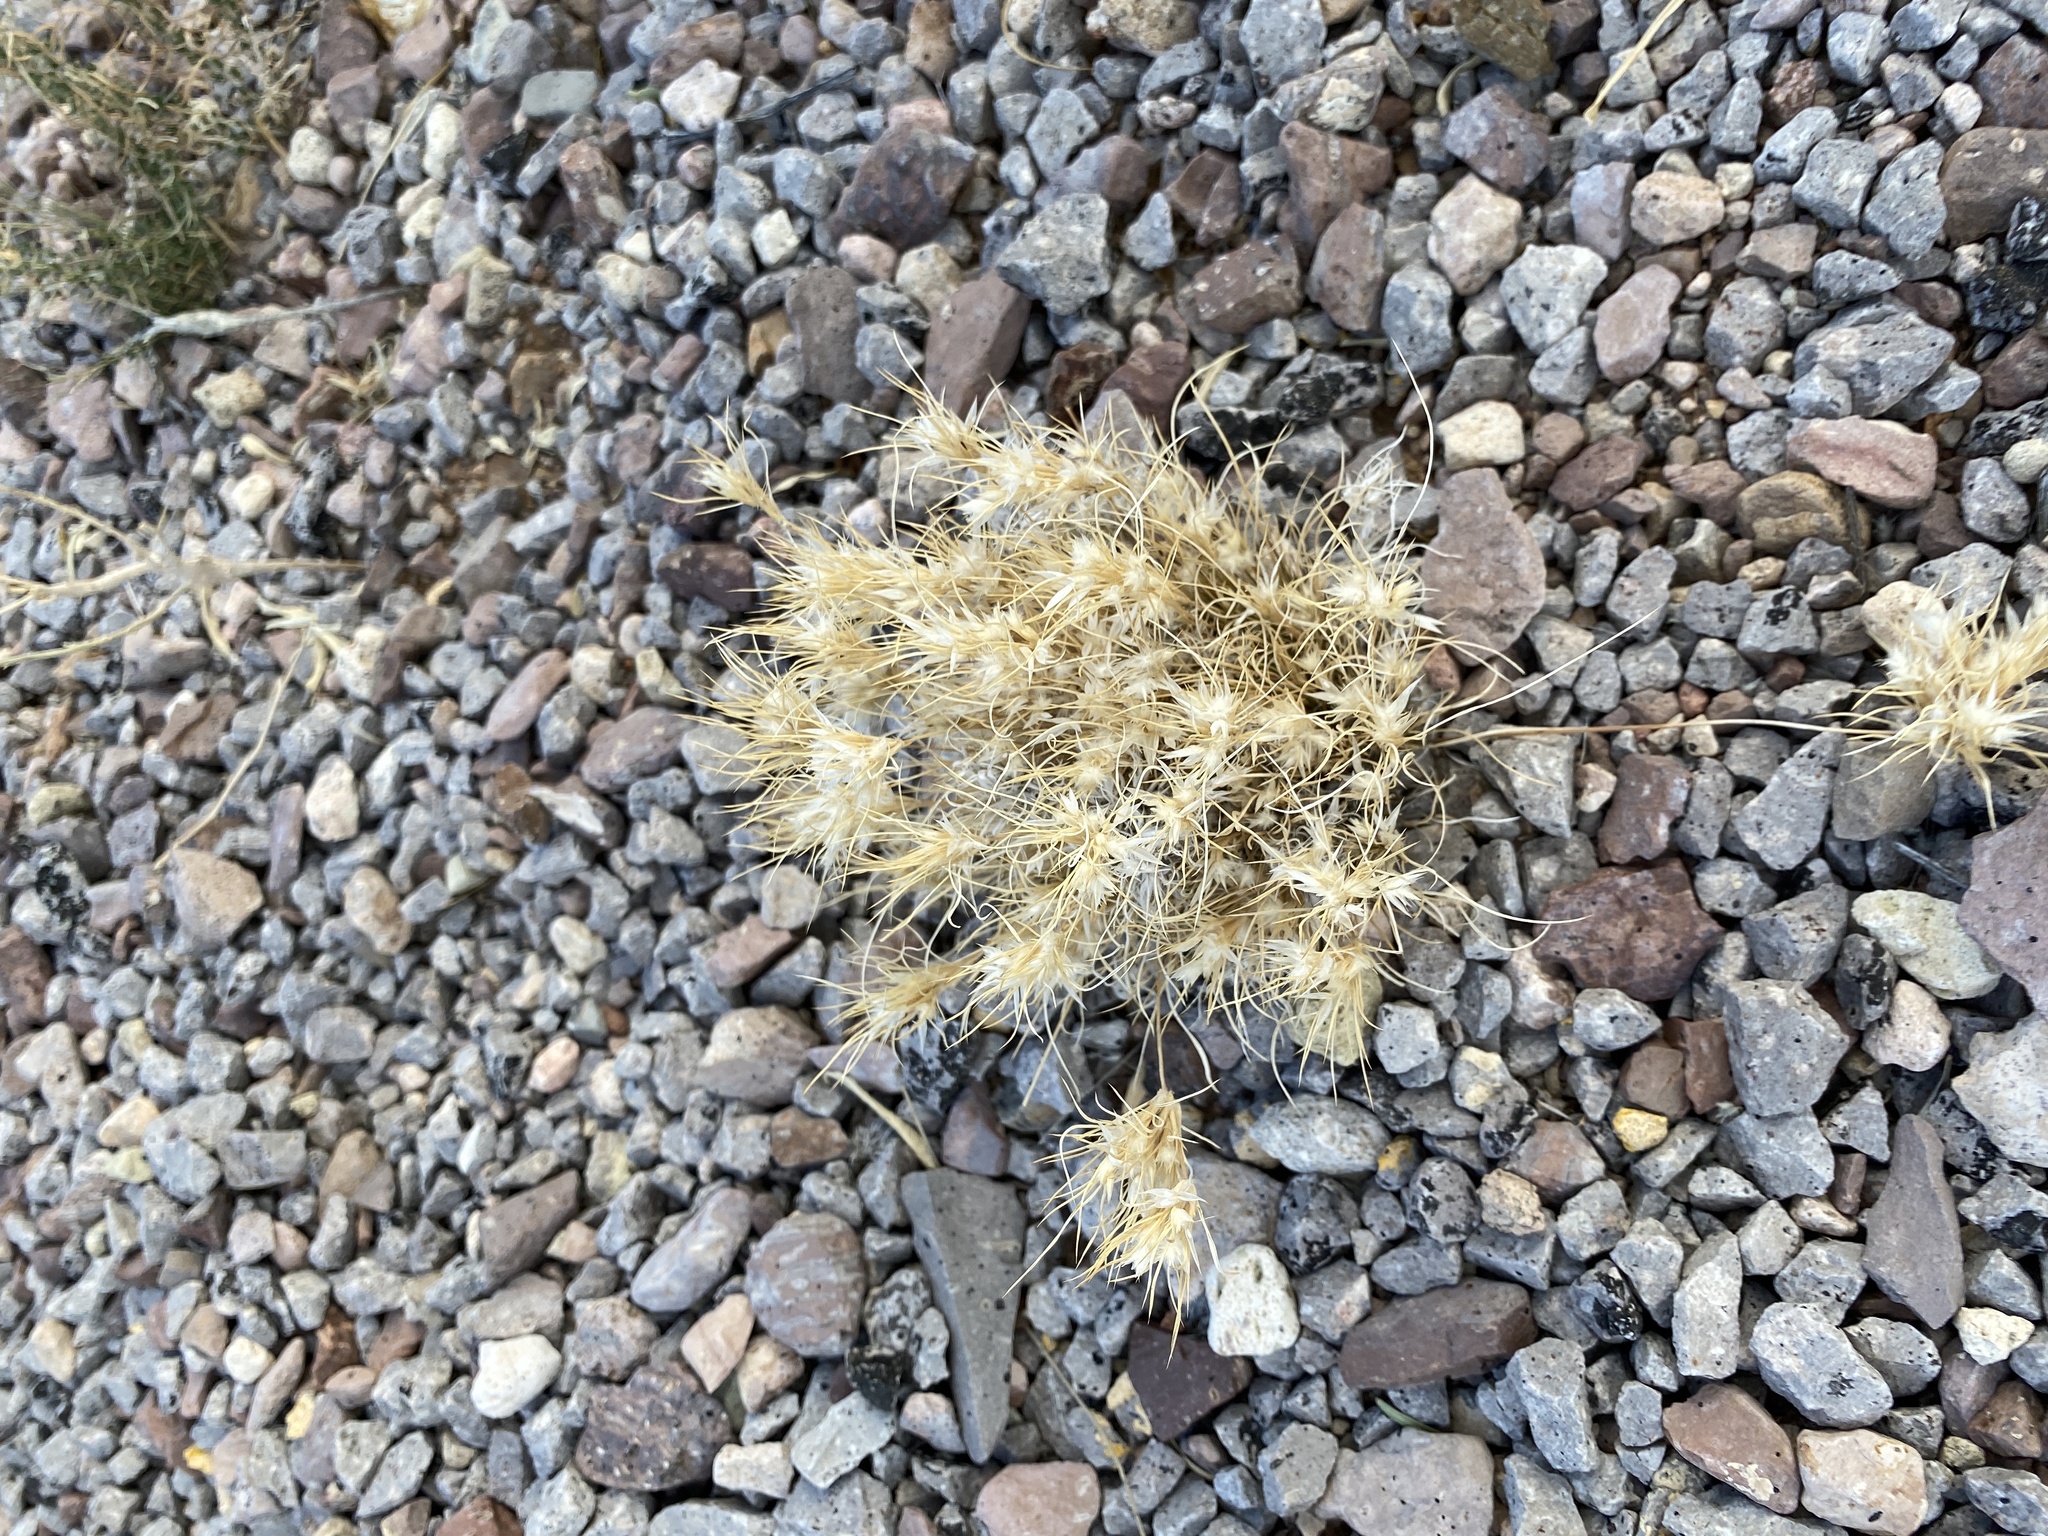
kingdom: Plantae
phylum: Tracheophyta
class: Liliopsida
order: Poales
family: Poaceae
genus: Dasyochloa
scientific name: Dasyochloa pulchella
